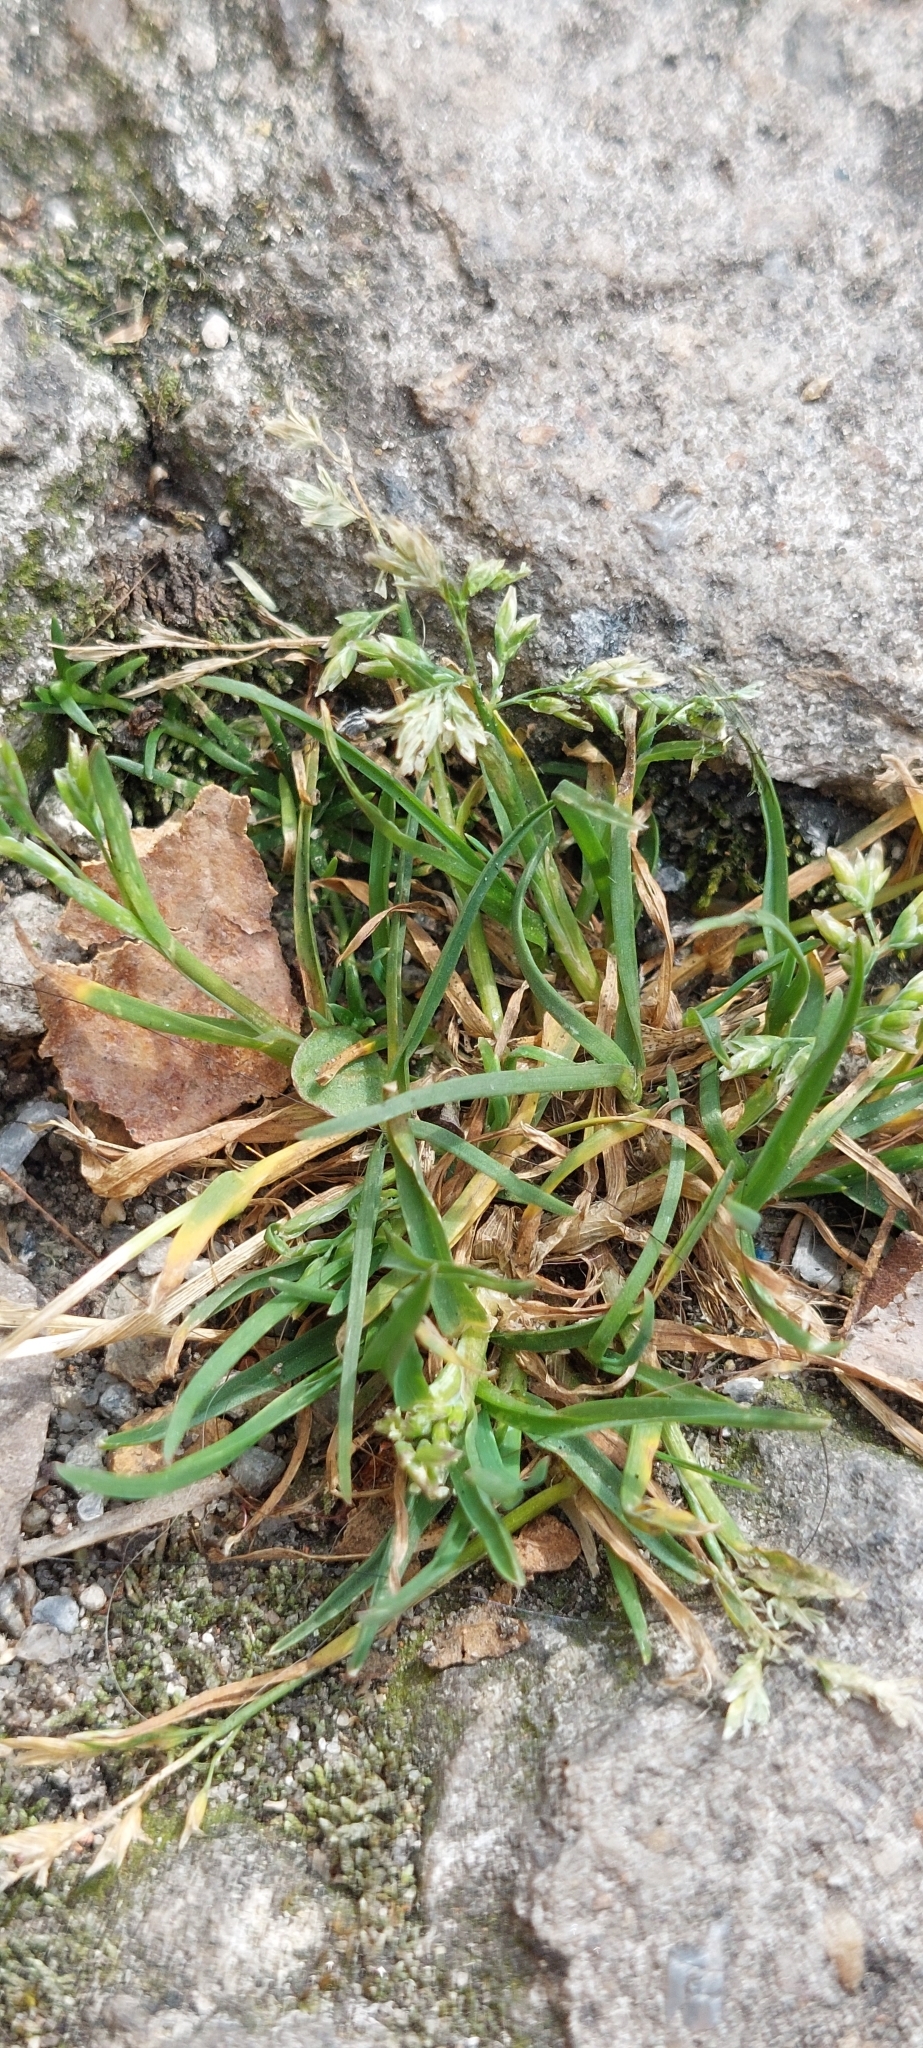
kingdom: Plantae
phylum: Tracheophyta
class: Liliopsida
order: Poales
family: Poaceae
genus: Poa
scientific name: Poa annua
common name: Annual bluegrass
